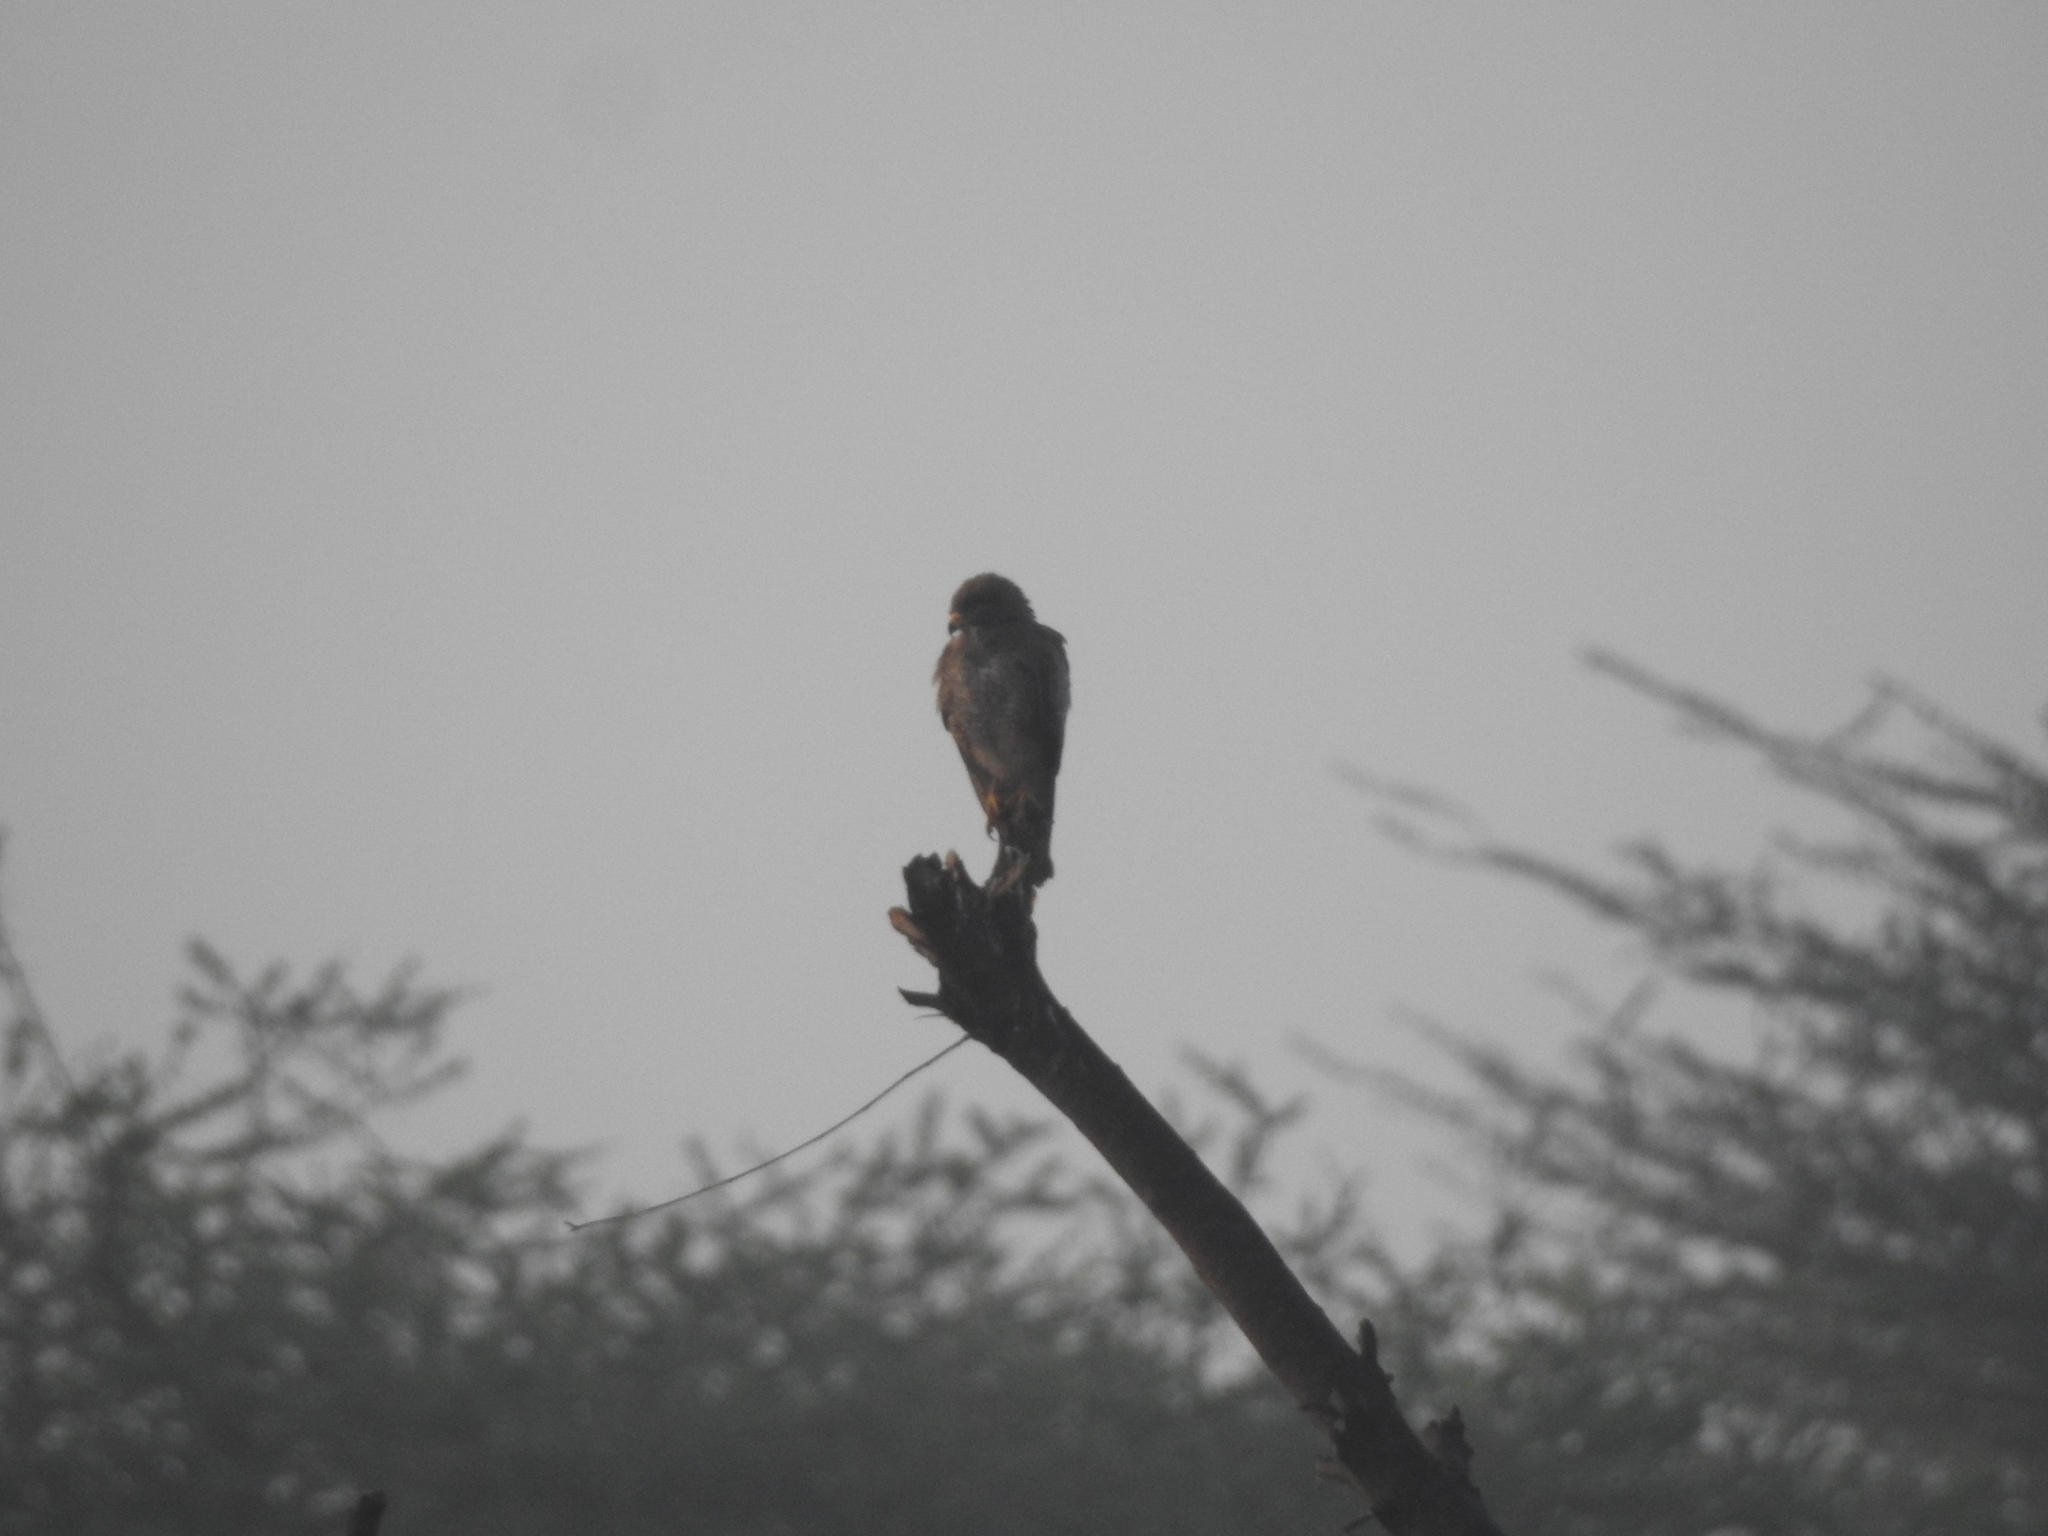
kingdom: Animalia
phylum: Chordata
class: Aves
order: Accipitriformes
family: Accipitridae
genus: Butastur
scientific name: Butastur teesa
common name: White-eyed buzzard
